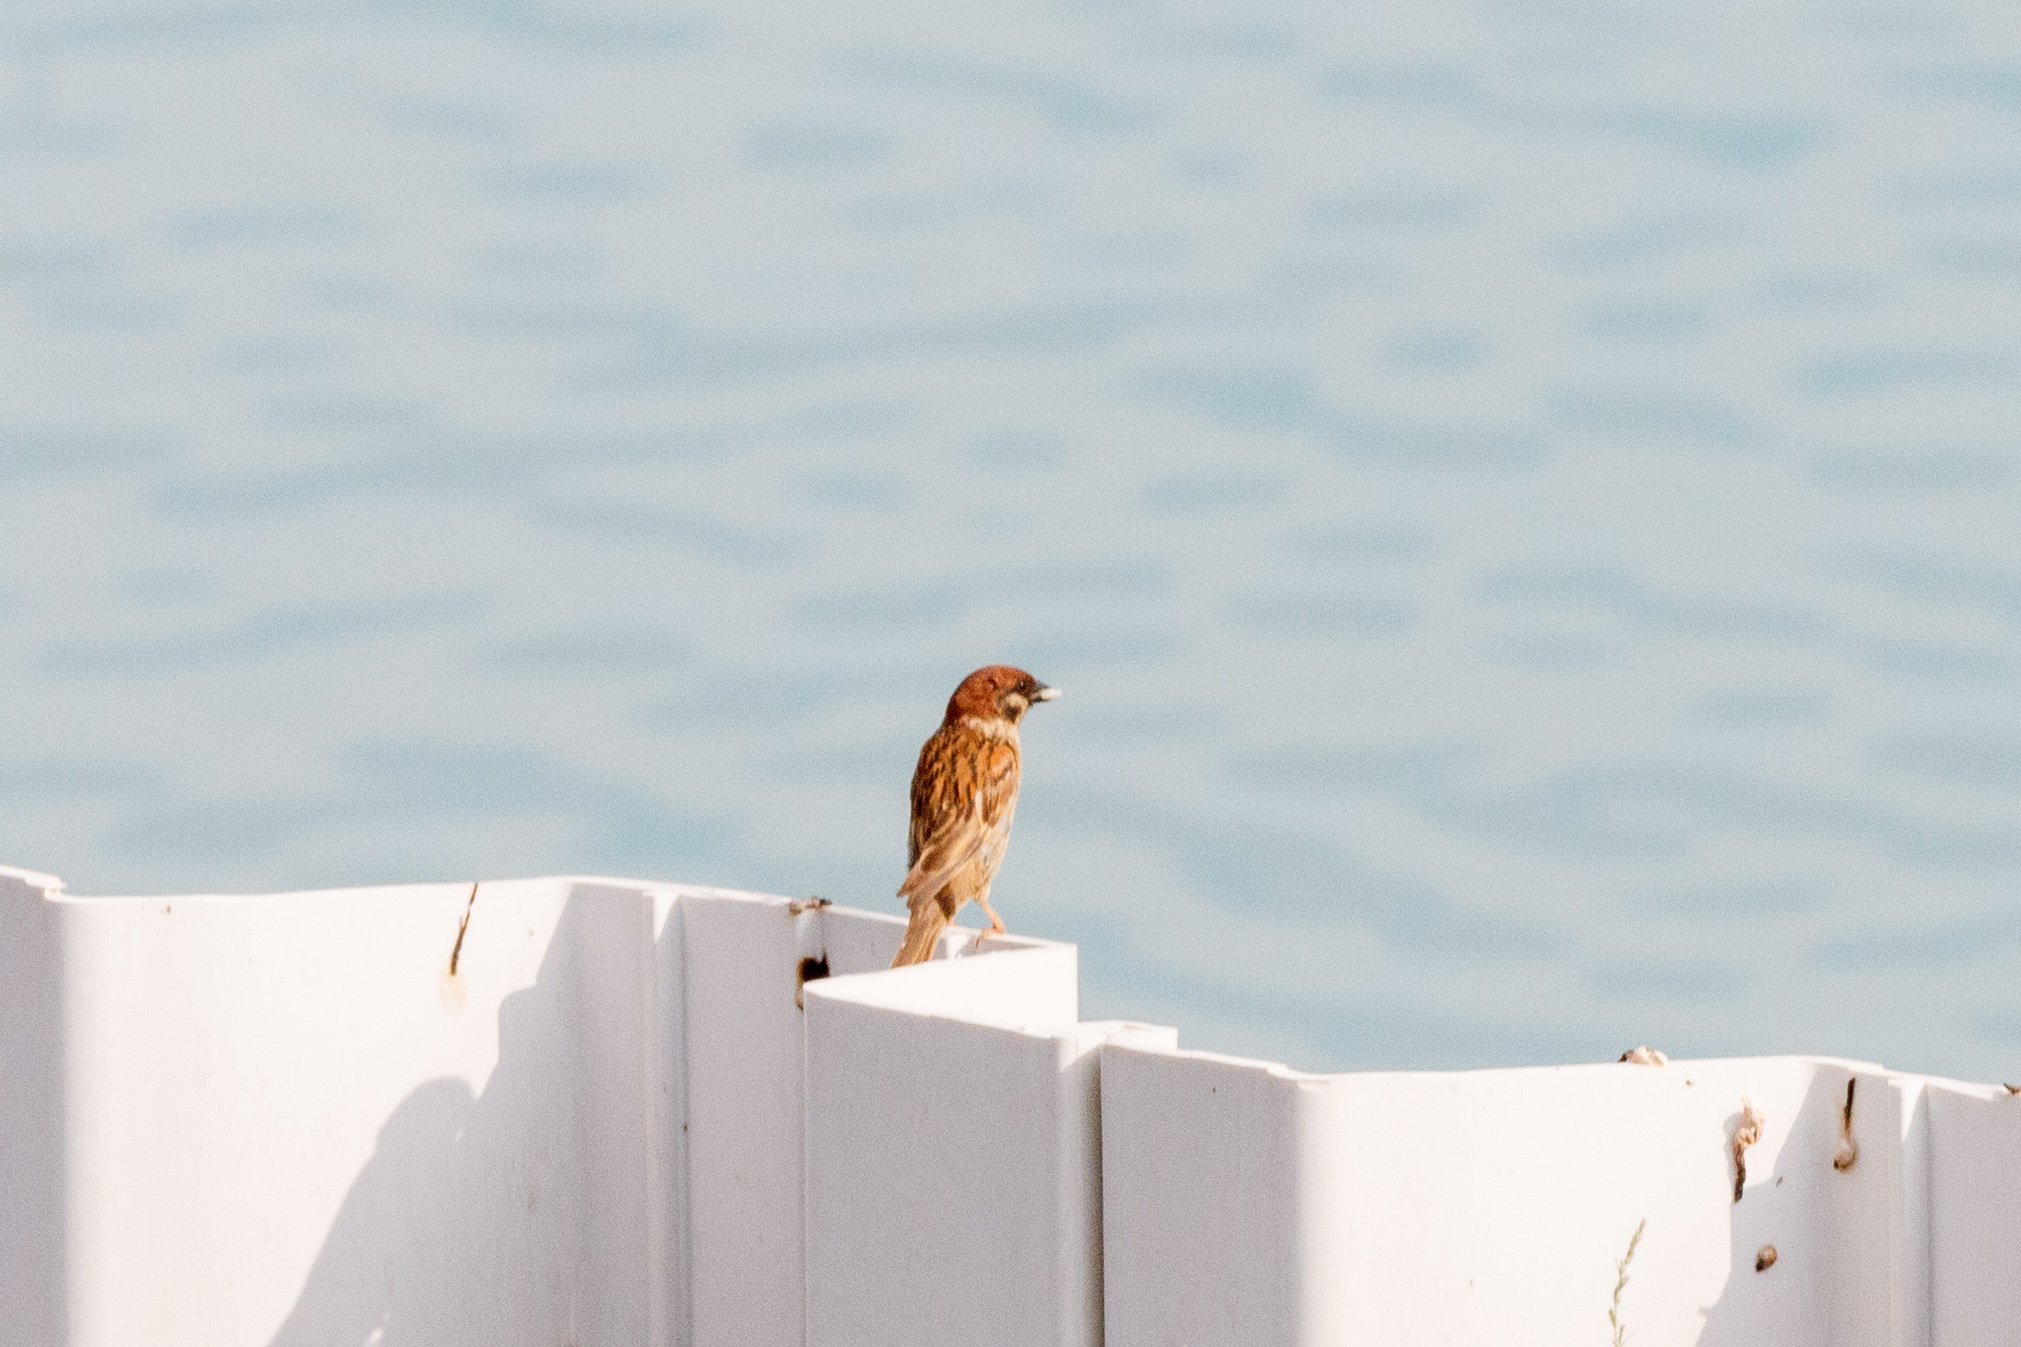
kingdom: Animalia
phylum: Chordata
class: Aves
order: Passeriformes
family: Passeridae
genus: Passer
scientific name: Passer montanus
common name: Eurasian tree sparrow
